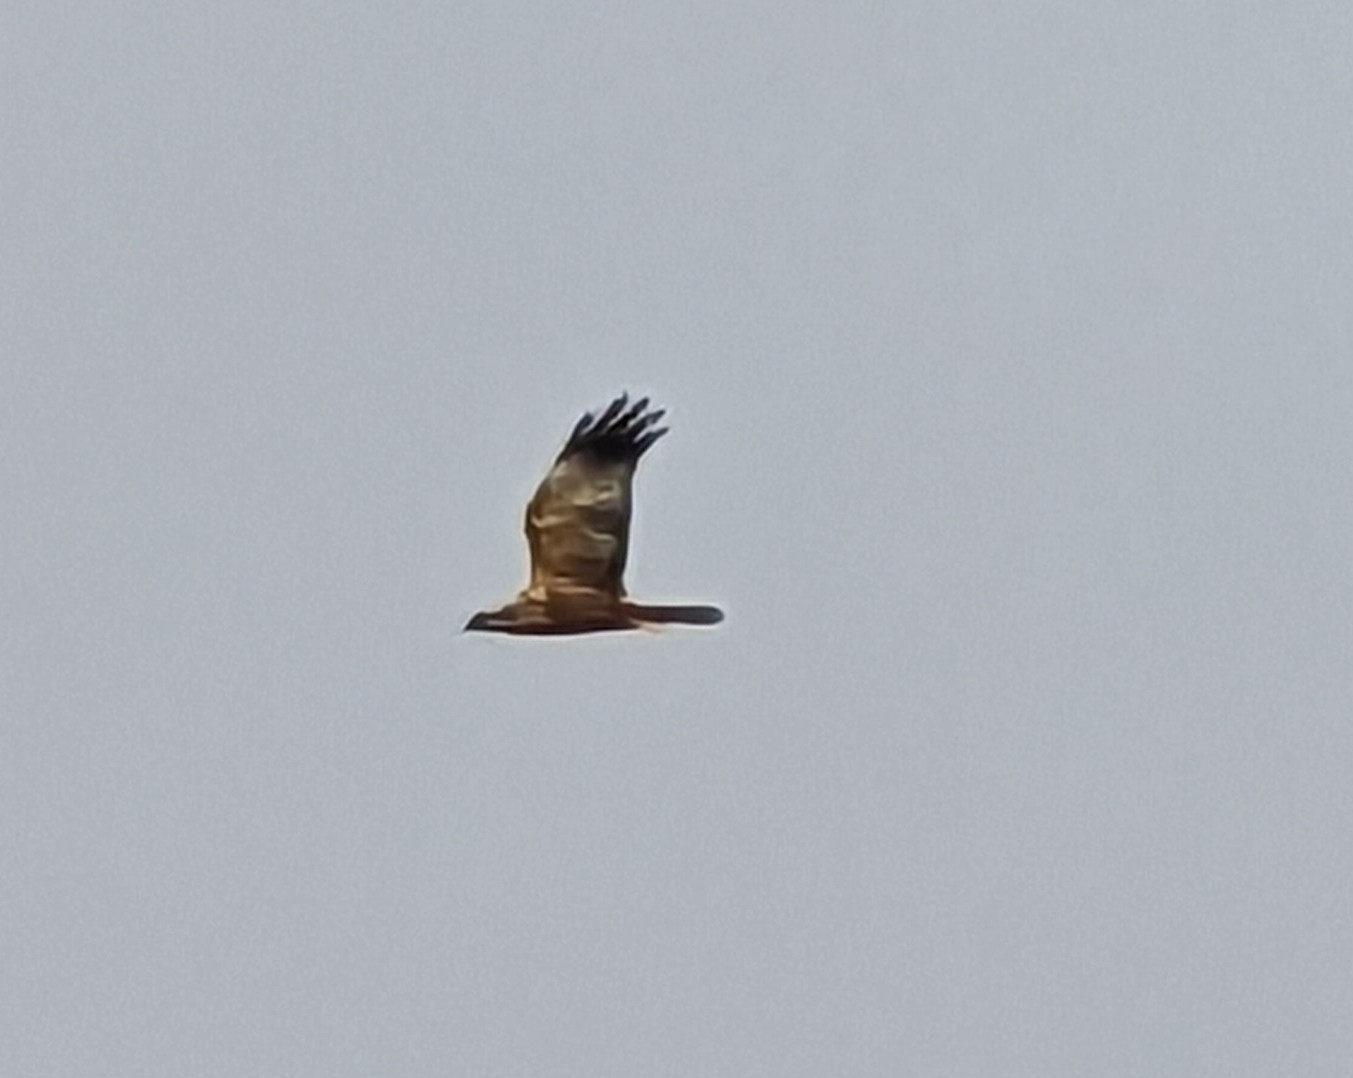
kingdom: Animalia
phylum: Chordata
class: Aves
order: Accipitriformes
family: Accipitridae
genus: Circus
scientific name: Circus aeruginosus
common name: Western marsh harrier
